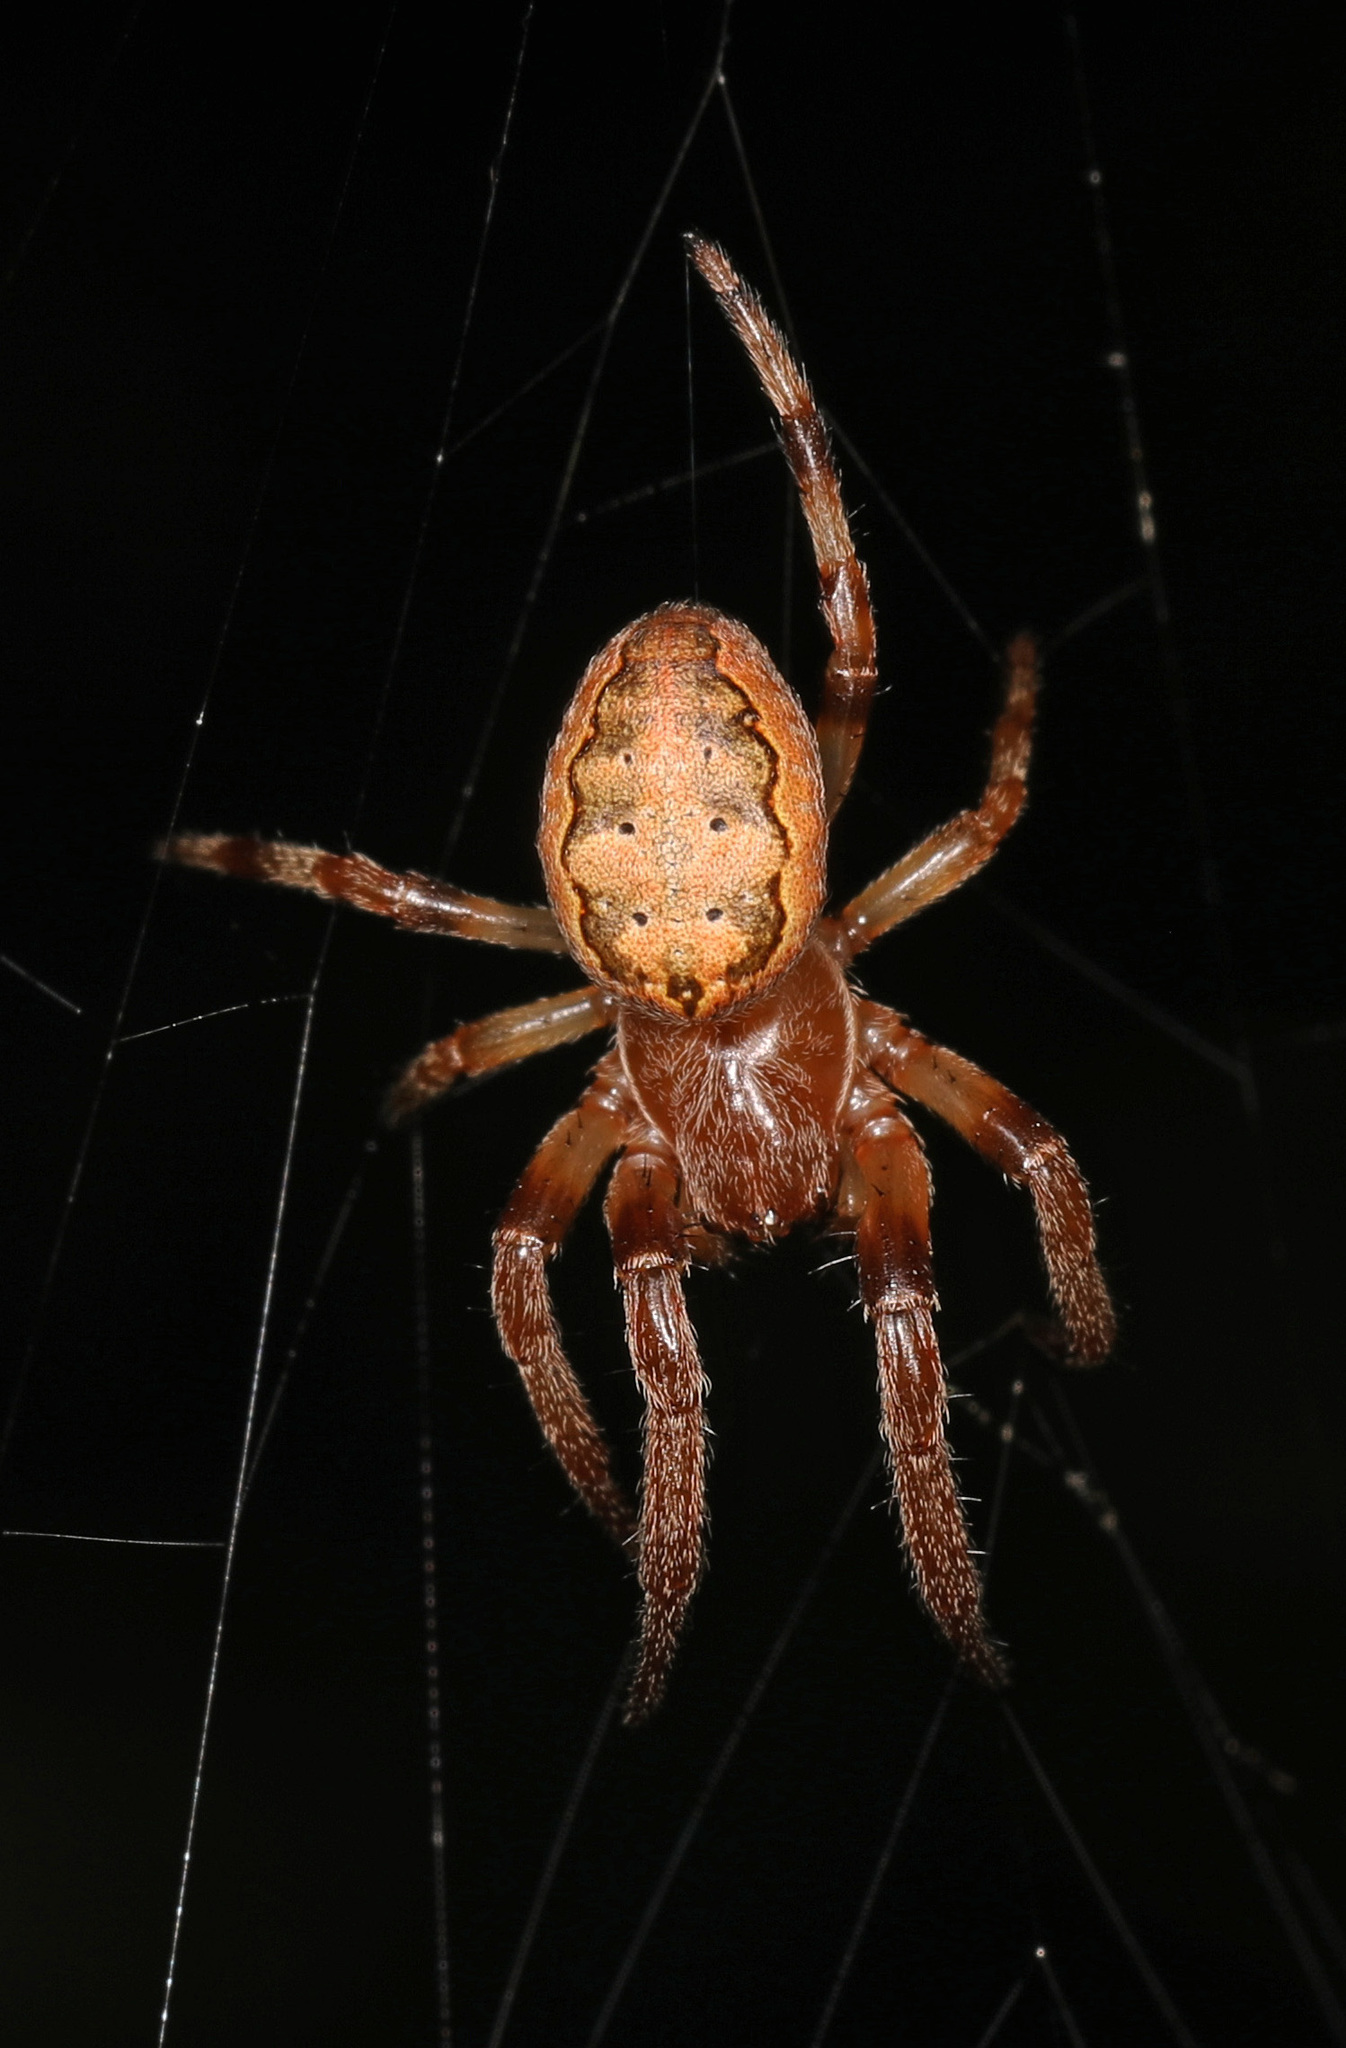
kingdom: Animalia
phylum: Arthropoda
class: Arachnida
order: Araneae
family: Araneidae
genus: Larinioides
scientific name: Larinioides cornutus
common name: Furrow orbweaver
